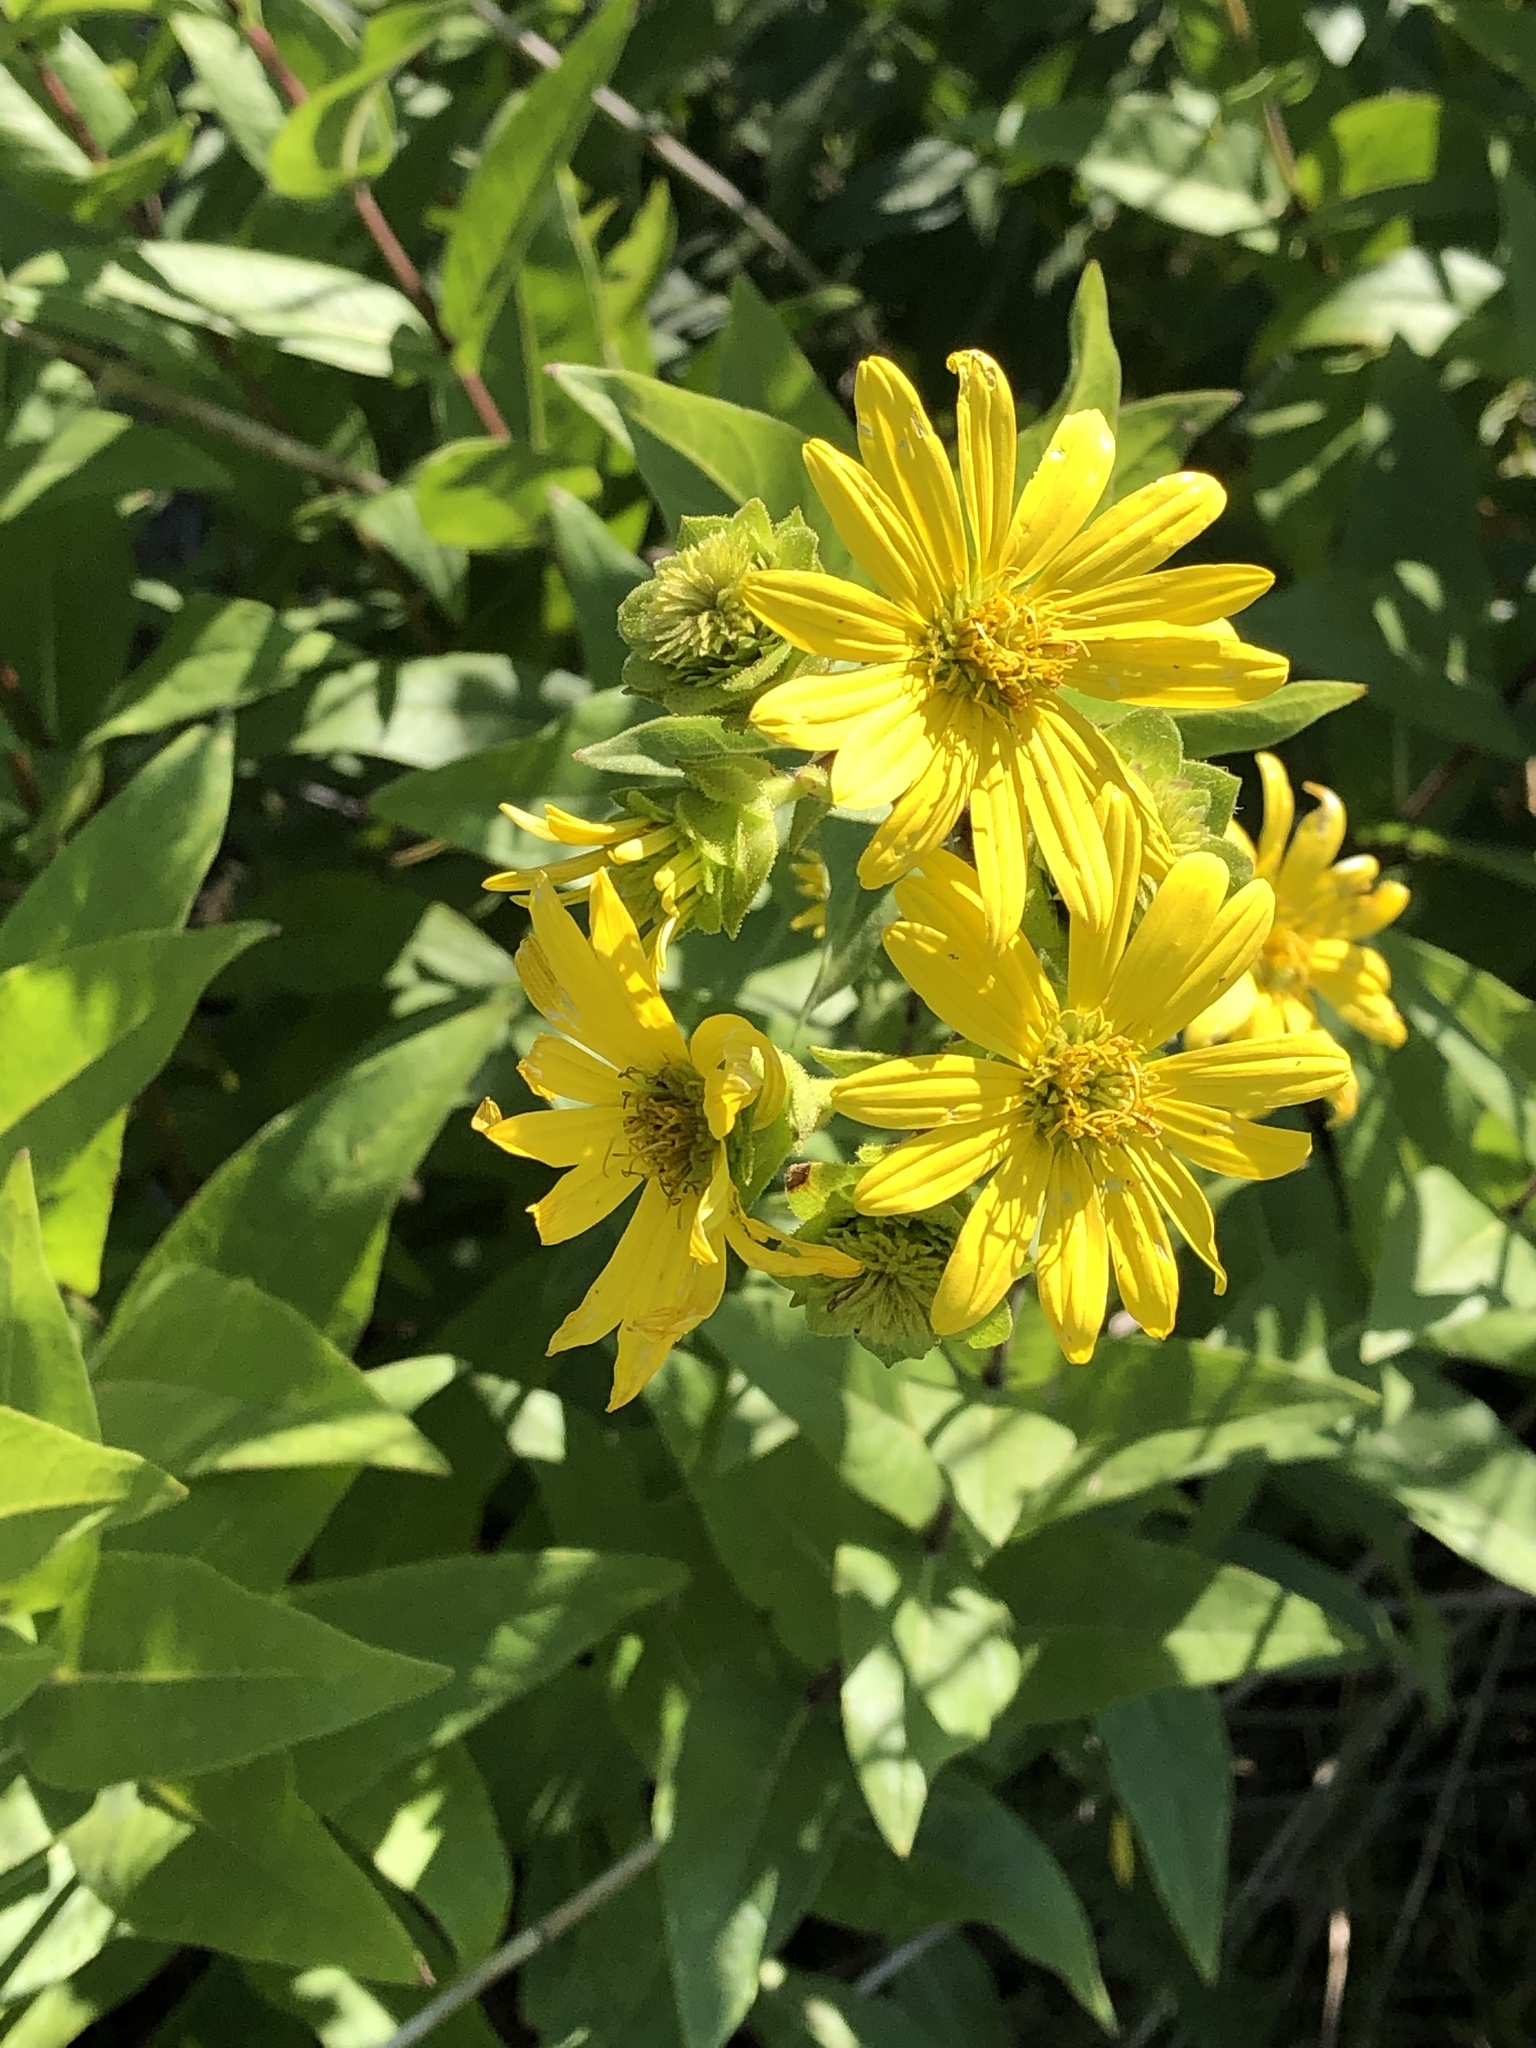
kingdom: Plantae
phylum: Tracheophyta
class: Magnoliopsida
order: Asterales
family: Asteraceae
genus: Silphium
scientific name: Silphium integrifolium
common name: Whole-leaf rosinweed
